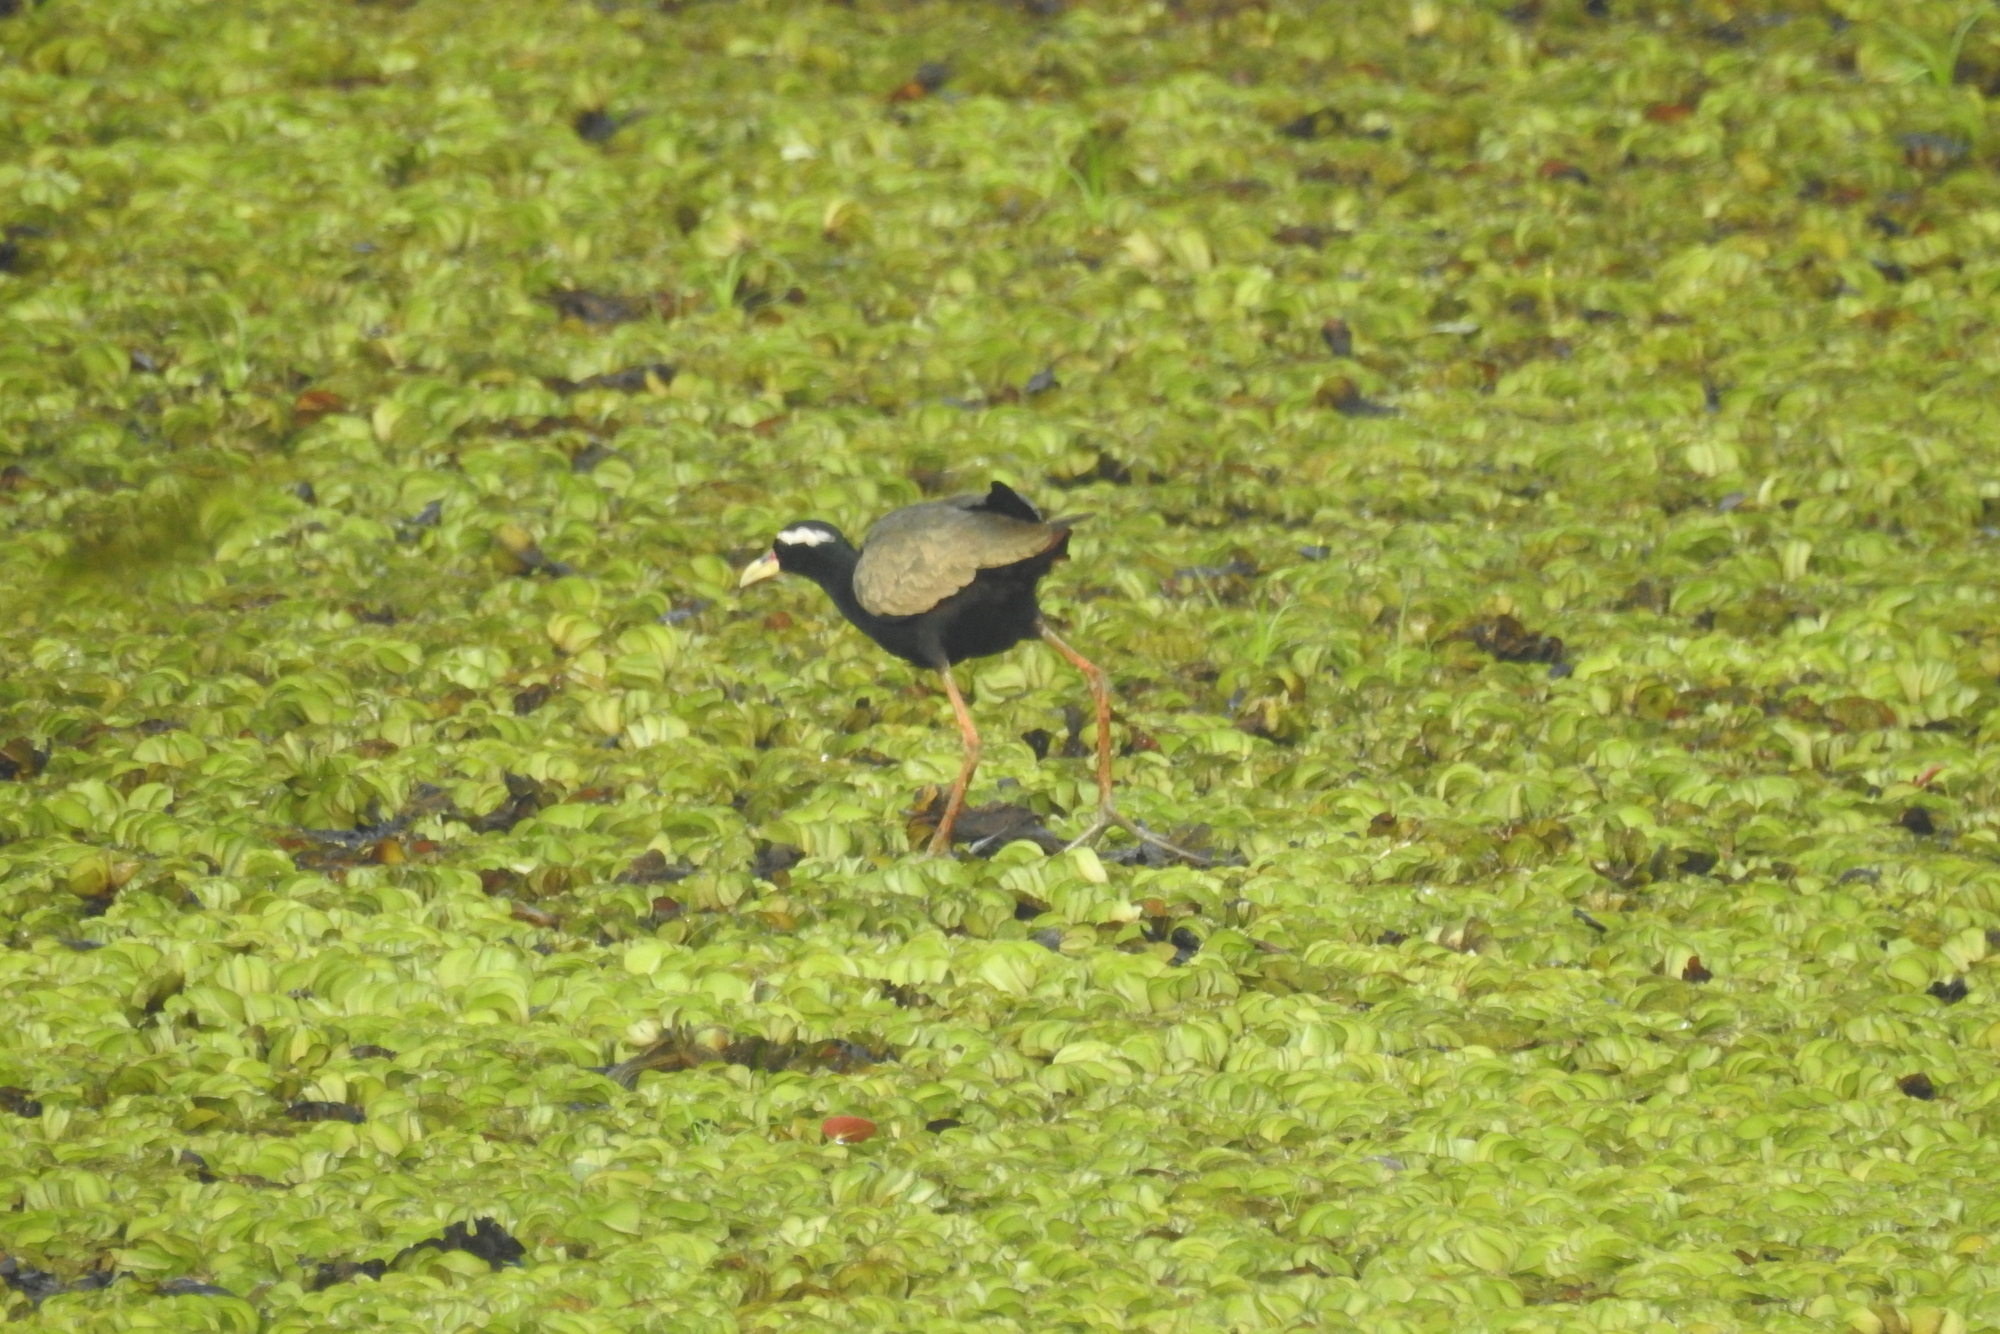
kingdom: Animalia
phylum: Chordata
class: Aves
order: Charadriiformes
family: Jacanidae
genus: Metopidius
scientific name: Metopidius indicus
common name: Bronze-winged jacana
